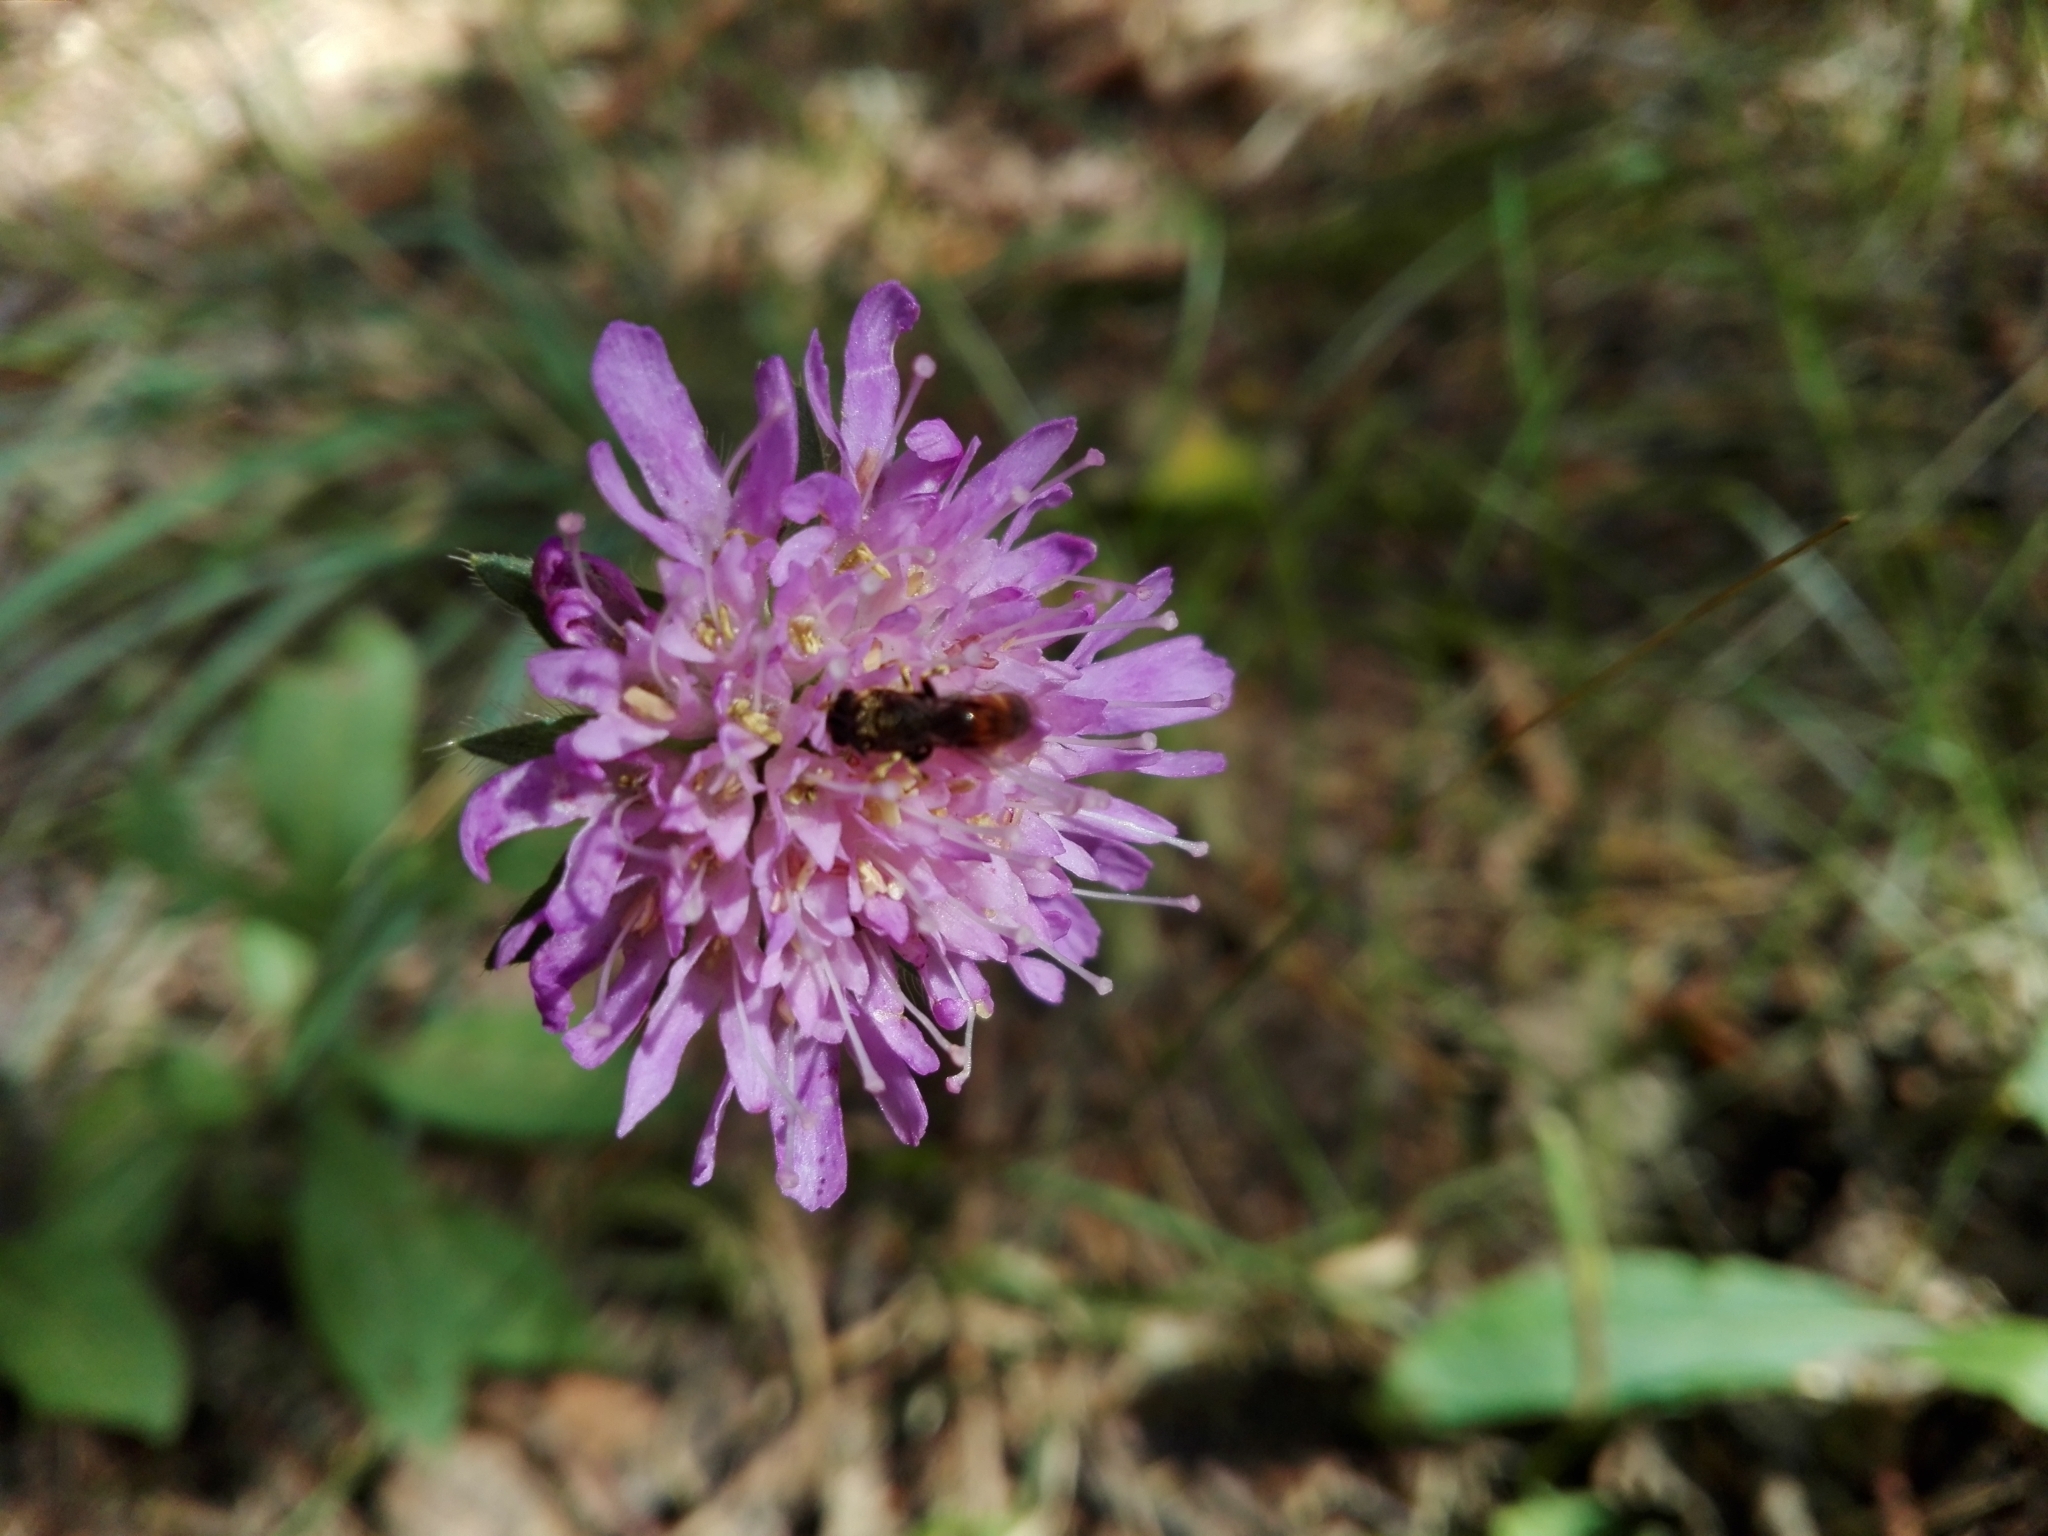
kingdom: Plantae
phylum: Tracheophyta
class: Magnoliopsida
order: Dipsacales
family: Caprifoliaceae
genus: Knautia
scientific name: Knautia arvensis
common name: Field scabiosa
